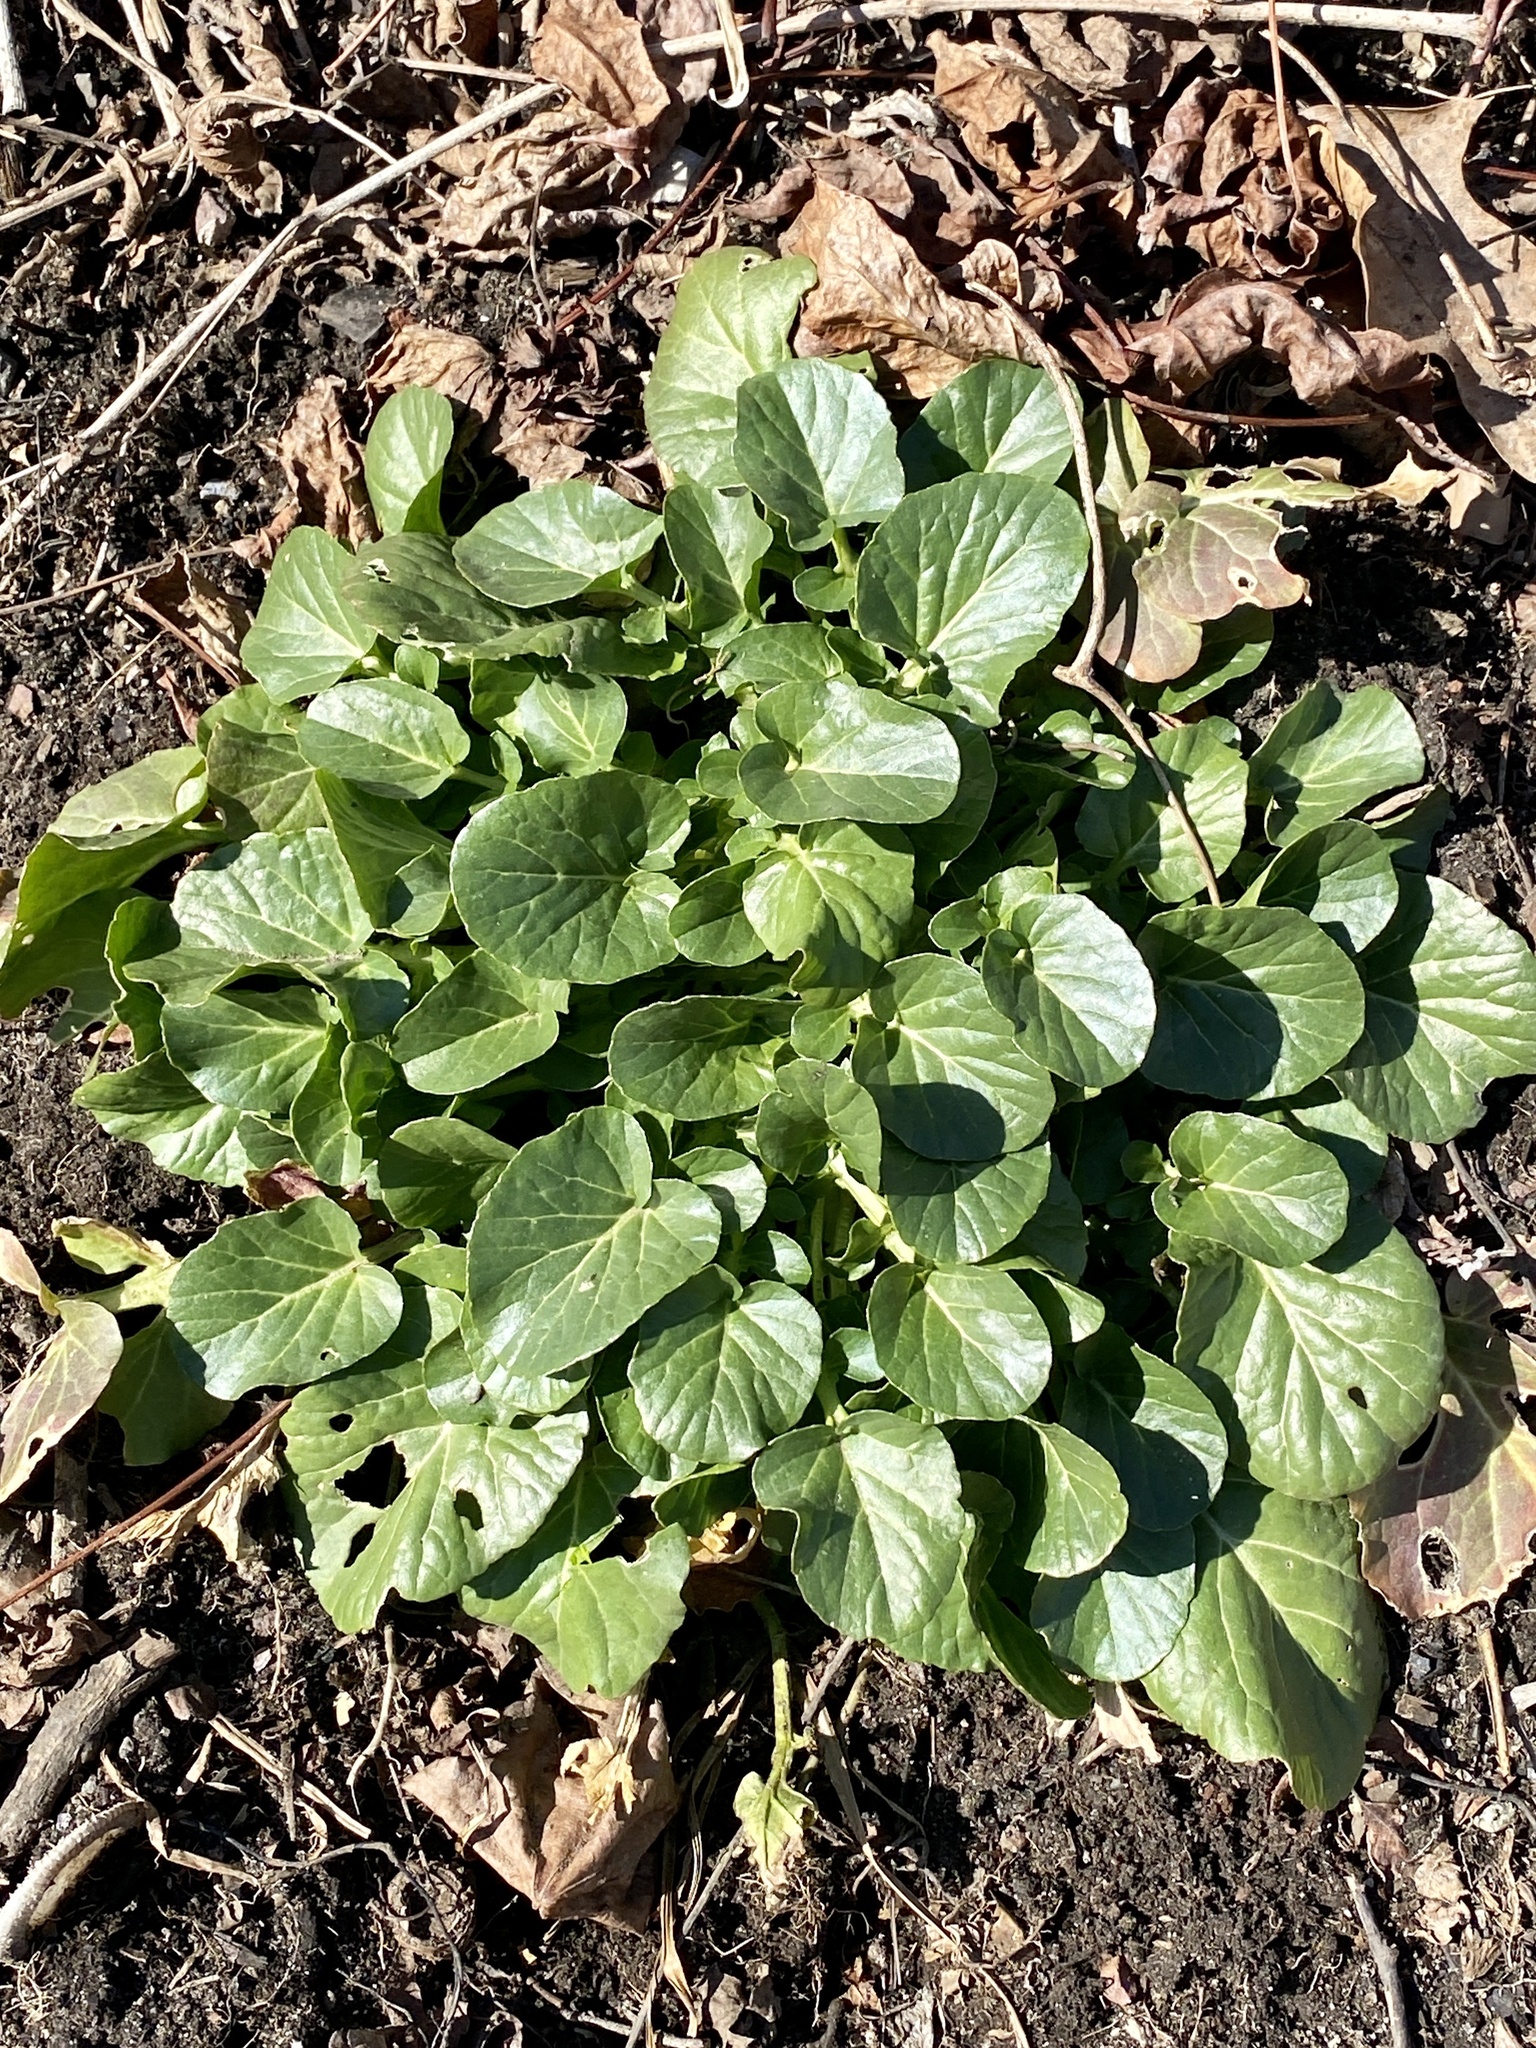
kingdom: Plantae
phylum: Tracheophyta
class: Magnoliopsida
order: Brassicales
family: Brassicaceae
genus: Barbarea
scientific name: Barbarea vulgaris
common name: Cressy-greens
